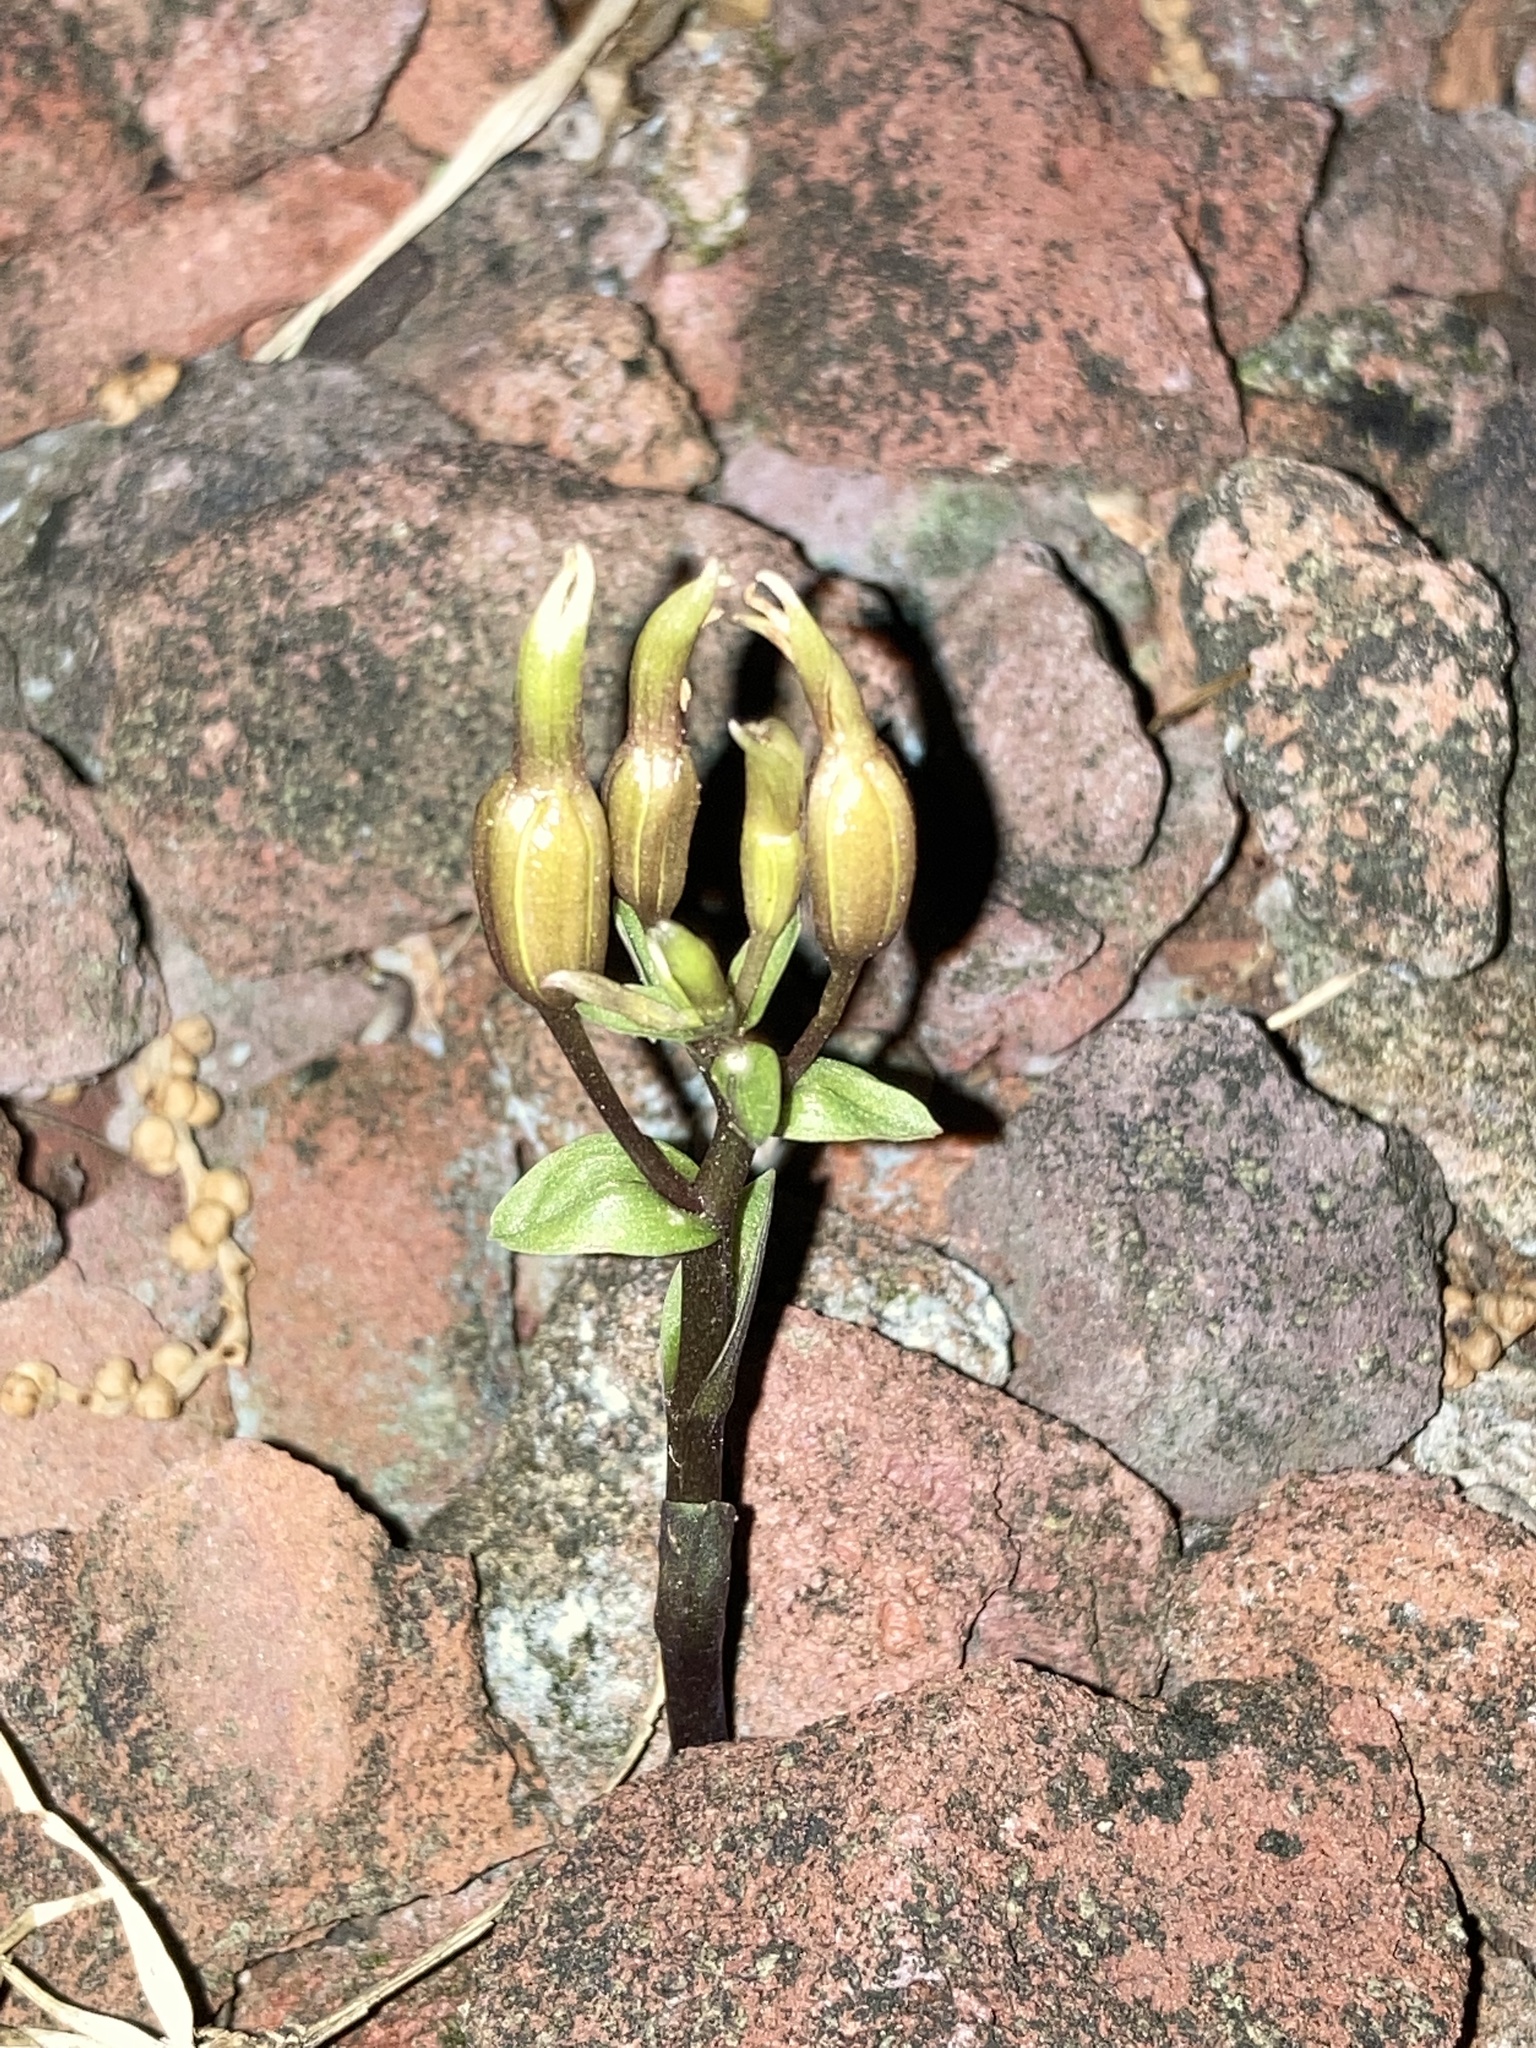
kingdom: Plantae
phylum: Tracheophyta
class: Liliopsida
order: Asparagales
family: Orchidaceae
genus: Triphora
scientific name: Triphora gentianoides
